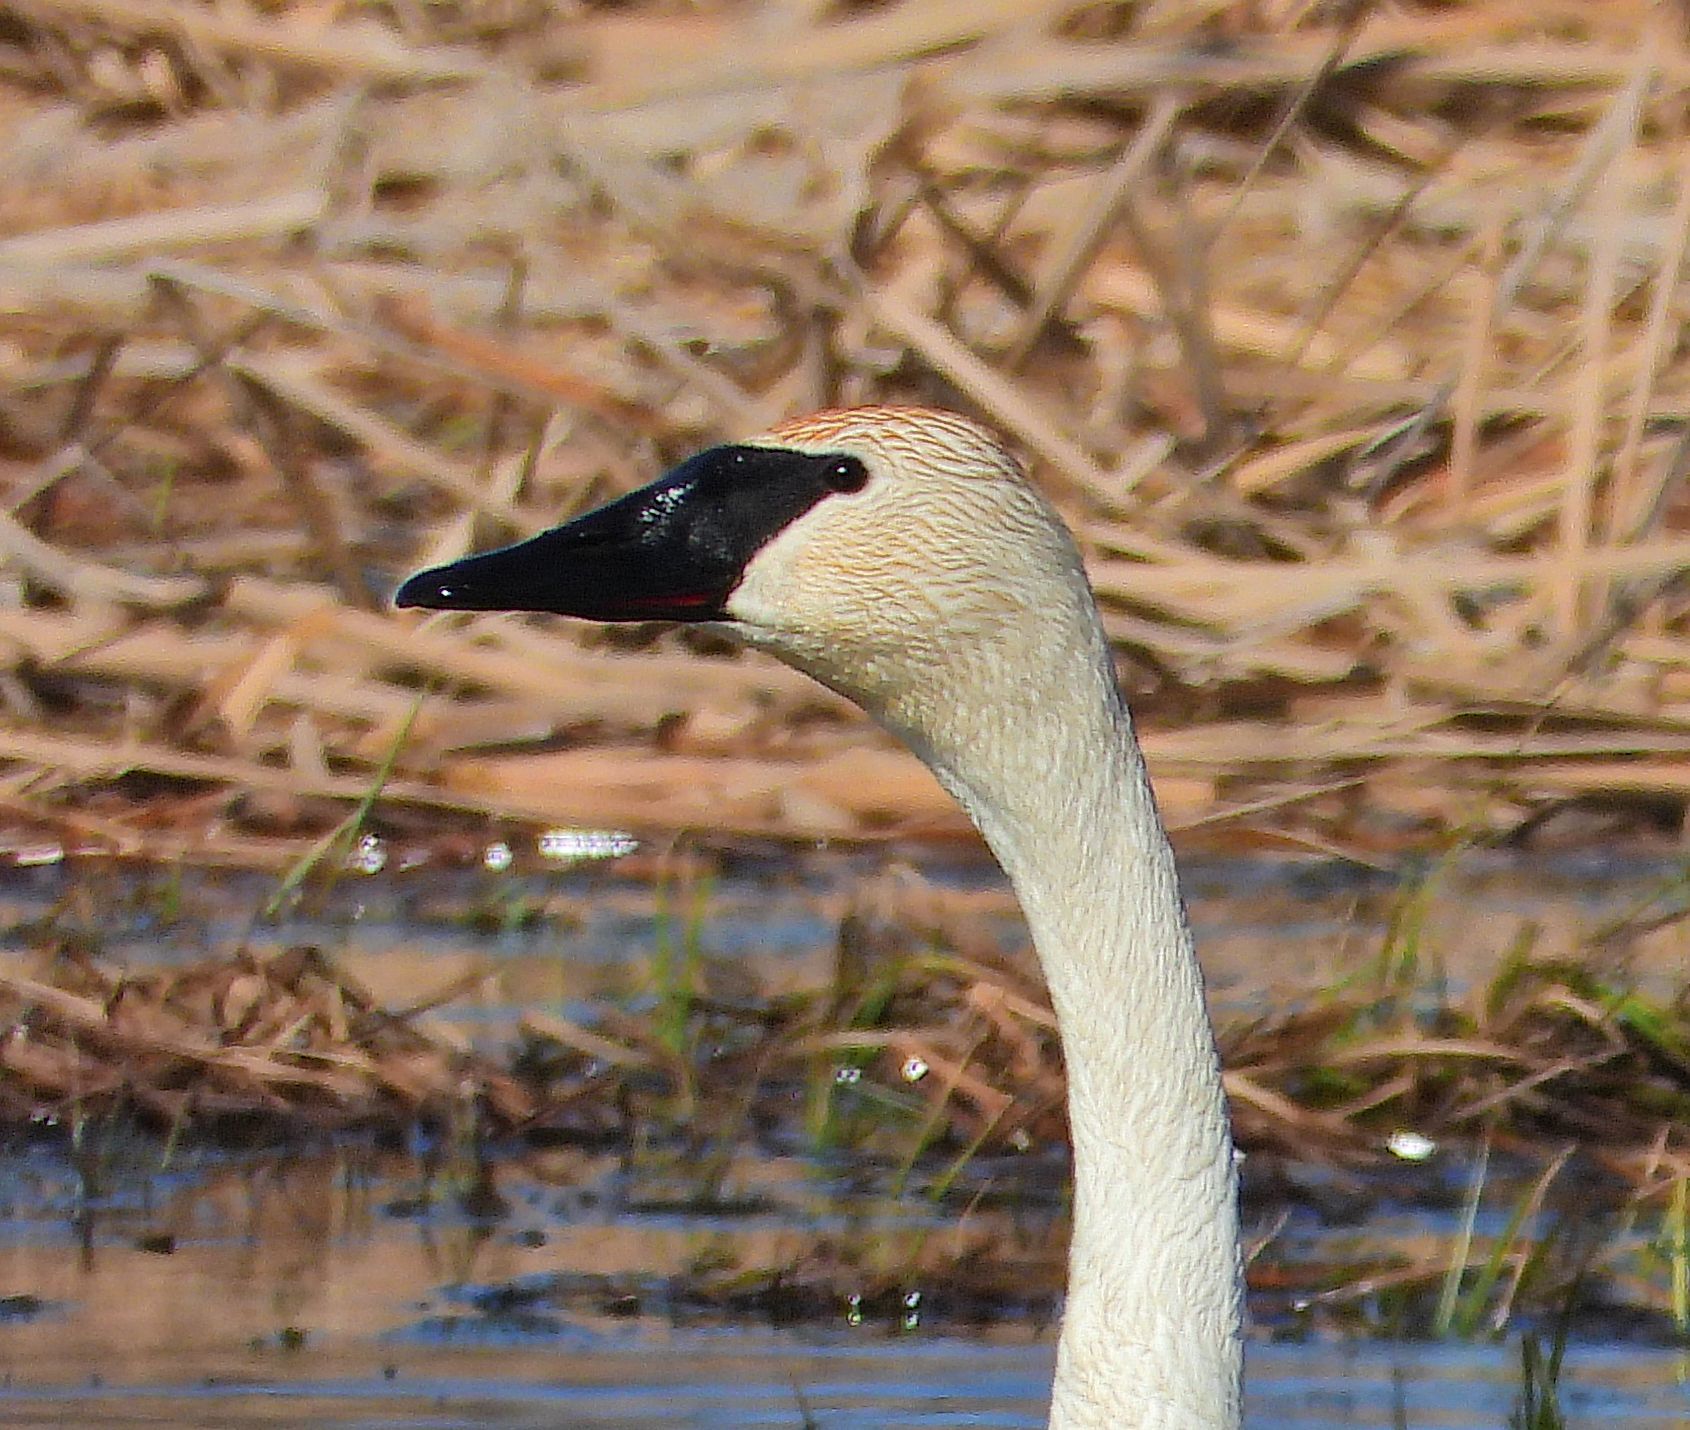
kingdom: Animalia
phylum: Chordata
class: Aves
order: Anseriformes
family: Anatidae
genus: Cygnus
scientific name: Cygnus buccinator
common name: Trumpeter swan
